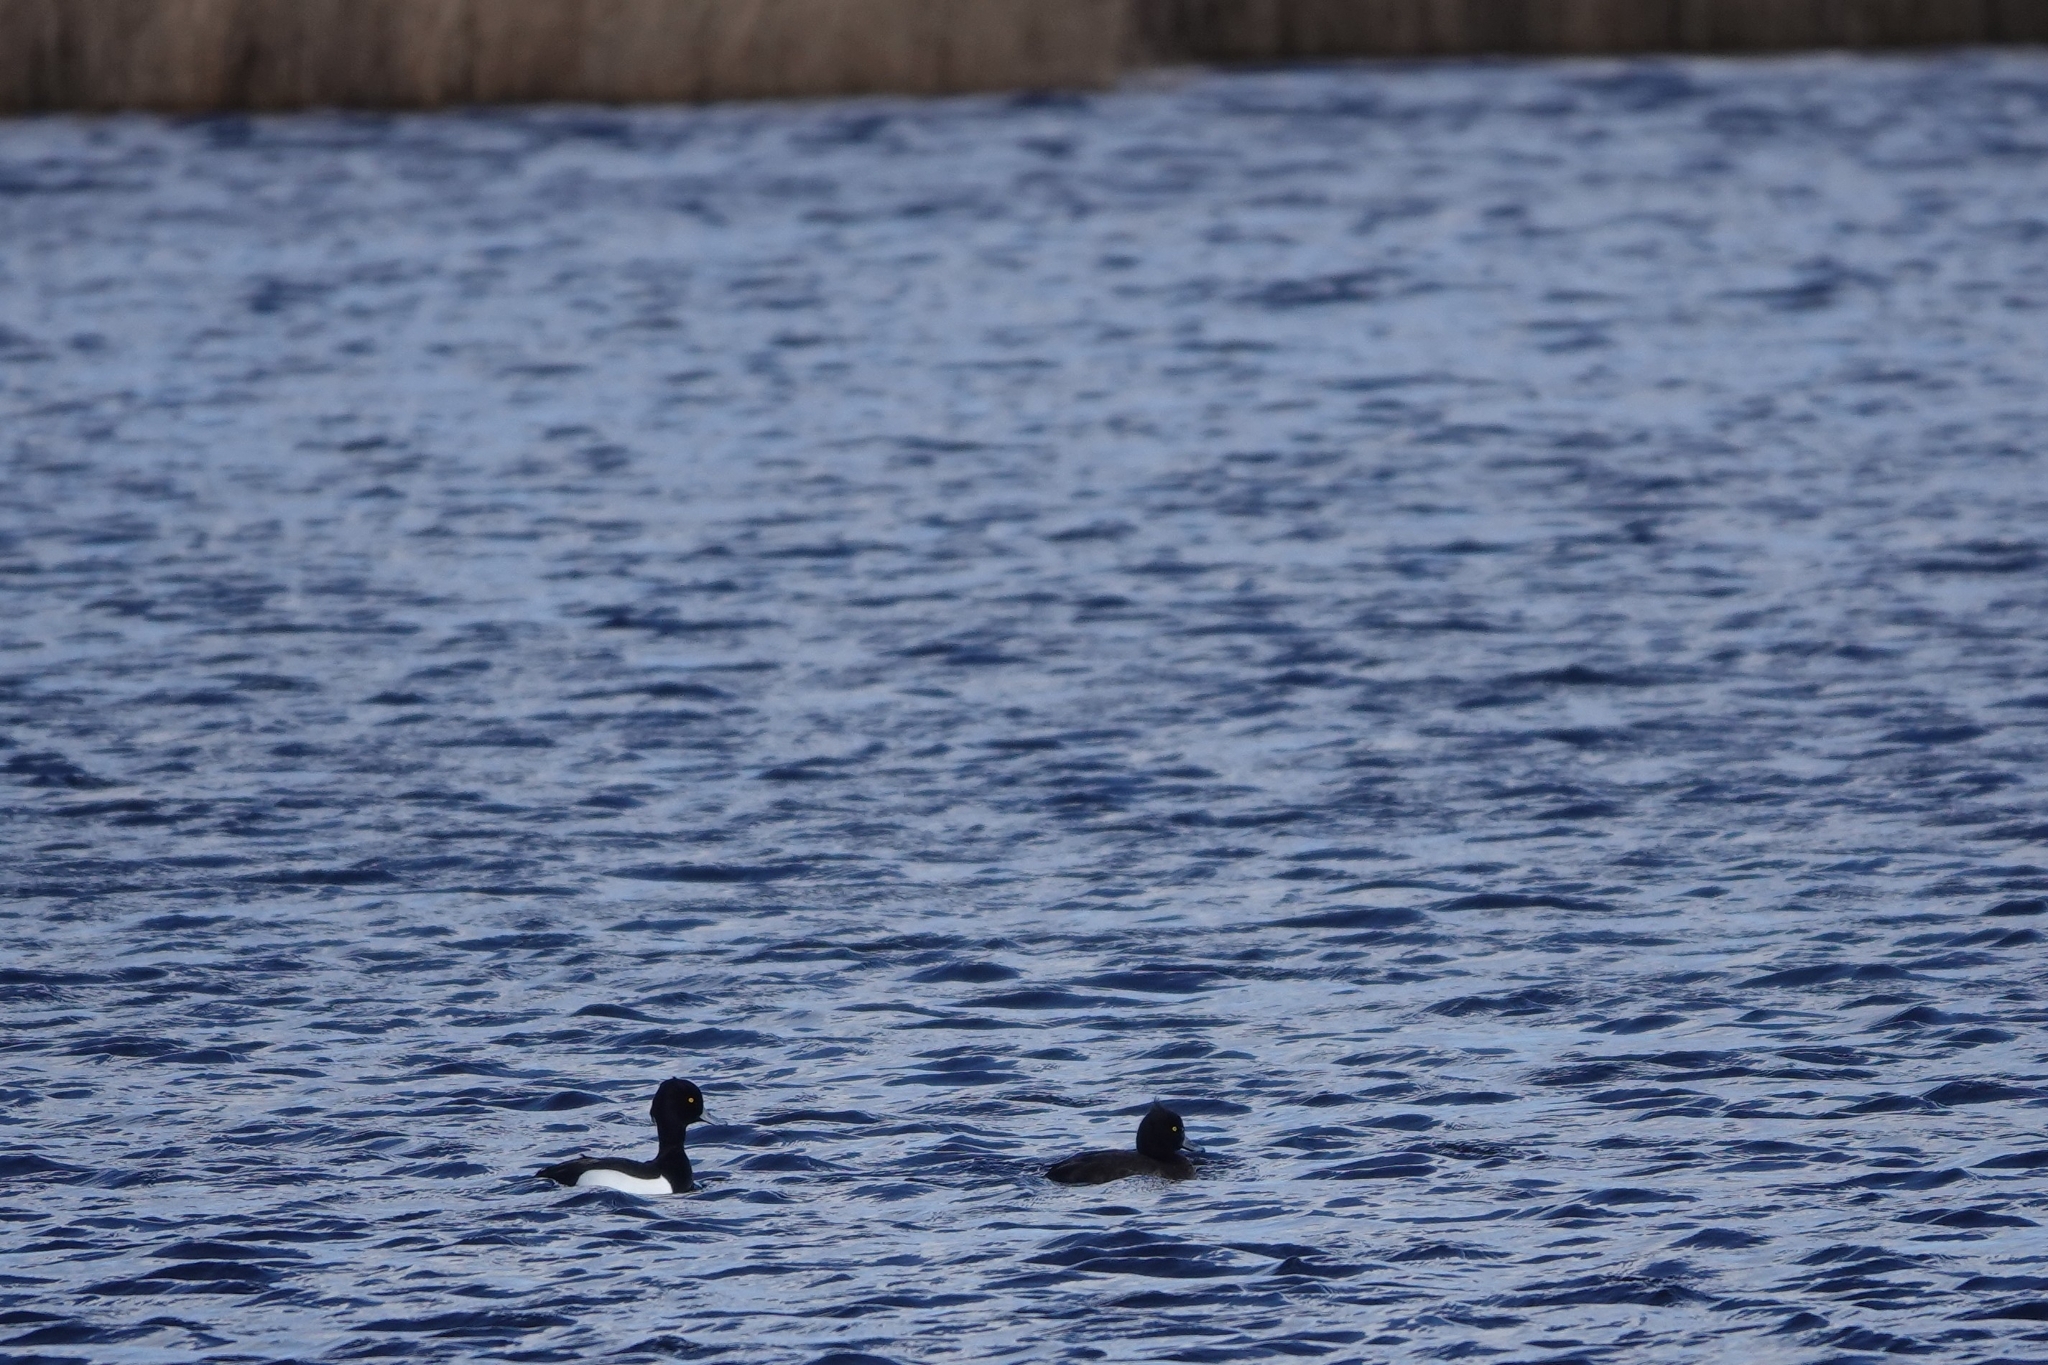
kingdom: Animalia
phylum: Chordata
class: Aves
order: Anseriformes
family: Anatidae
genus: Aythya
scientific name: Aythya fuligula
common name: Tufted duck
